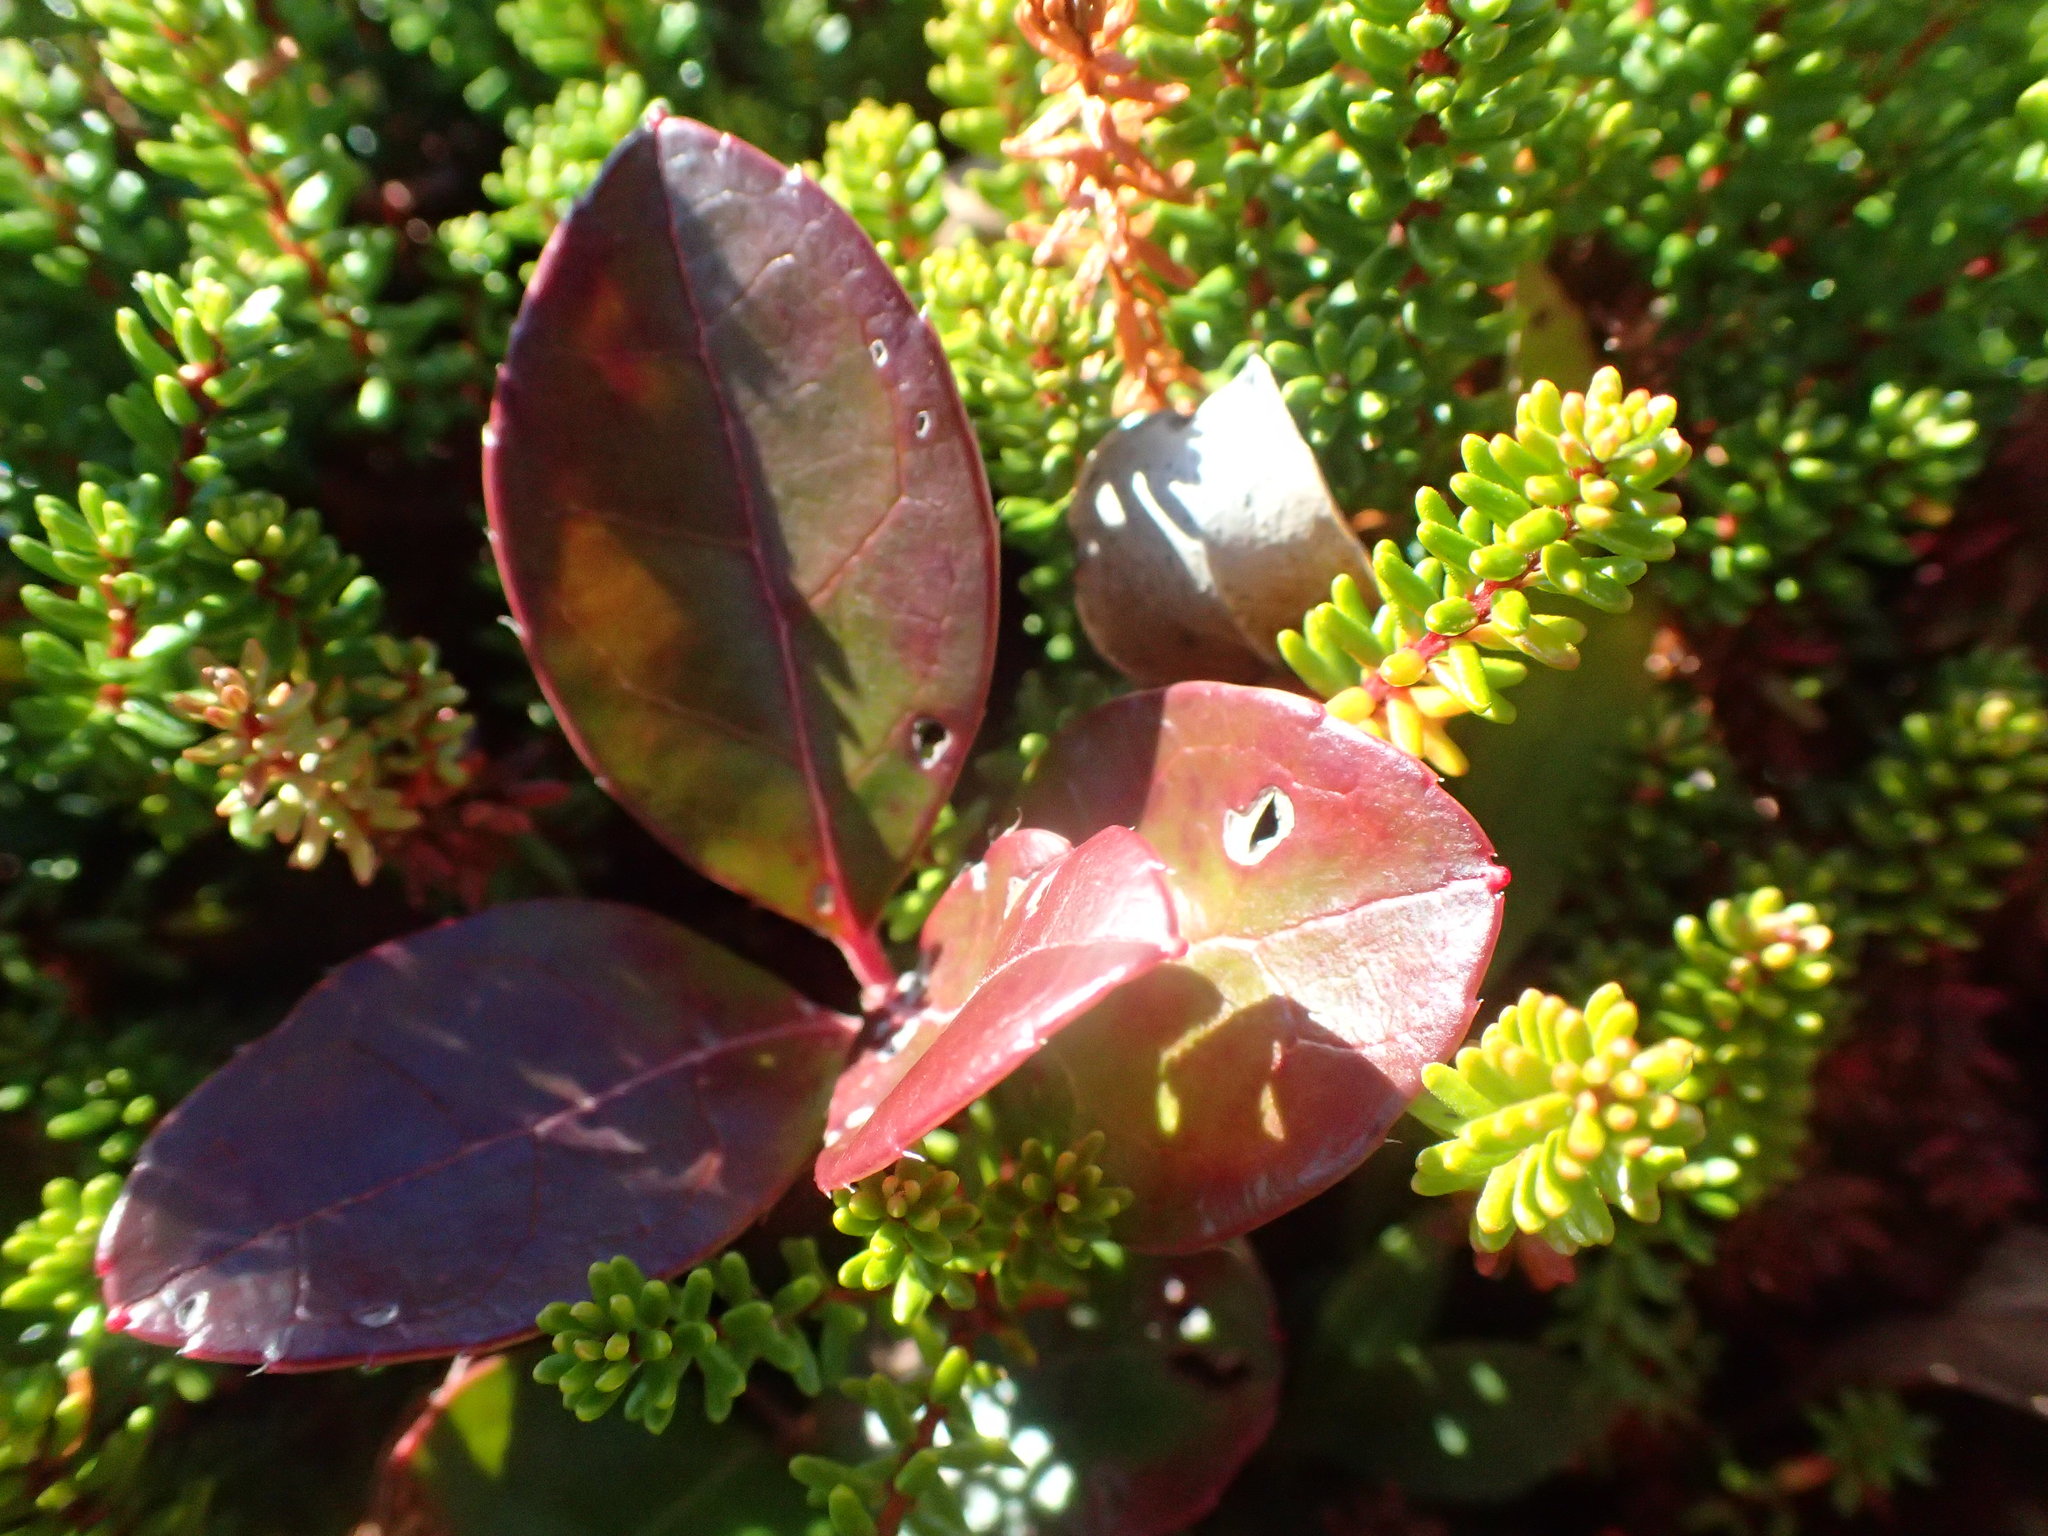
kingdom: Plantae
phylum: Tracheophyta
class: Magnoliopsida
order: Ericales
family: Ericaceae
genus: Gaultheria
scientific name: Gaultheria procumbens
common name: Checkerberry
